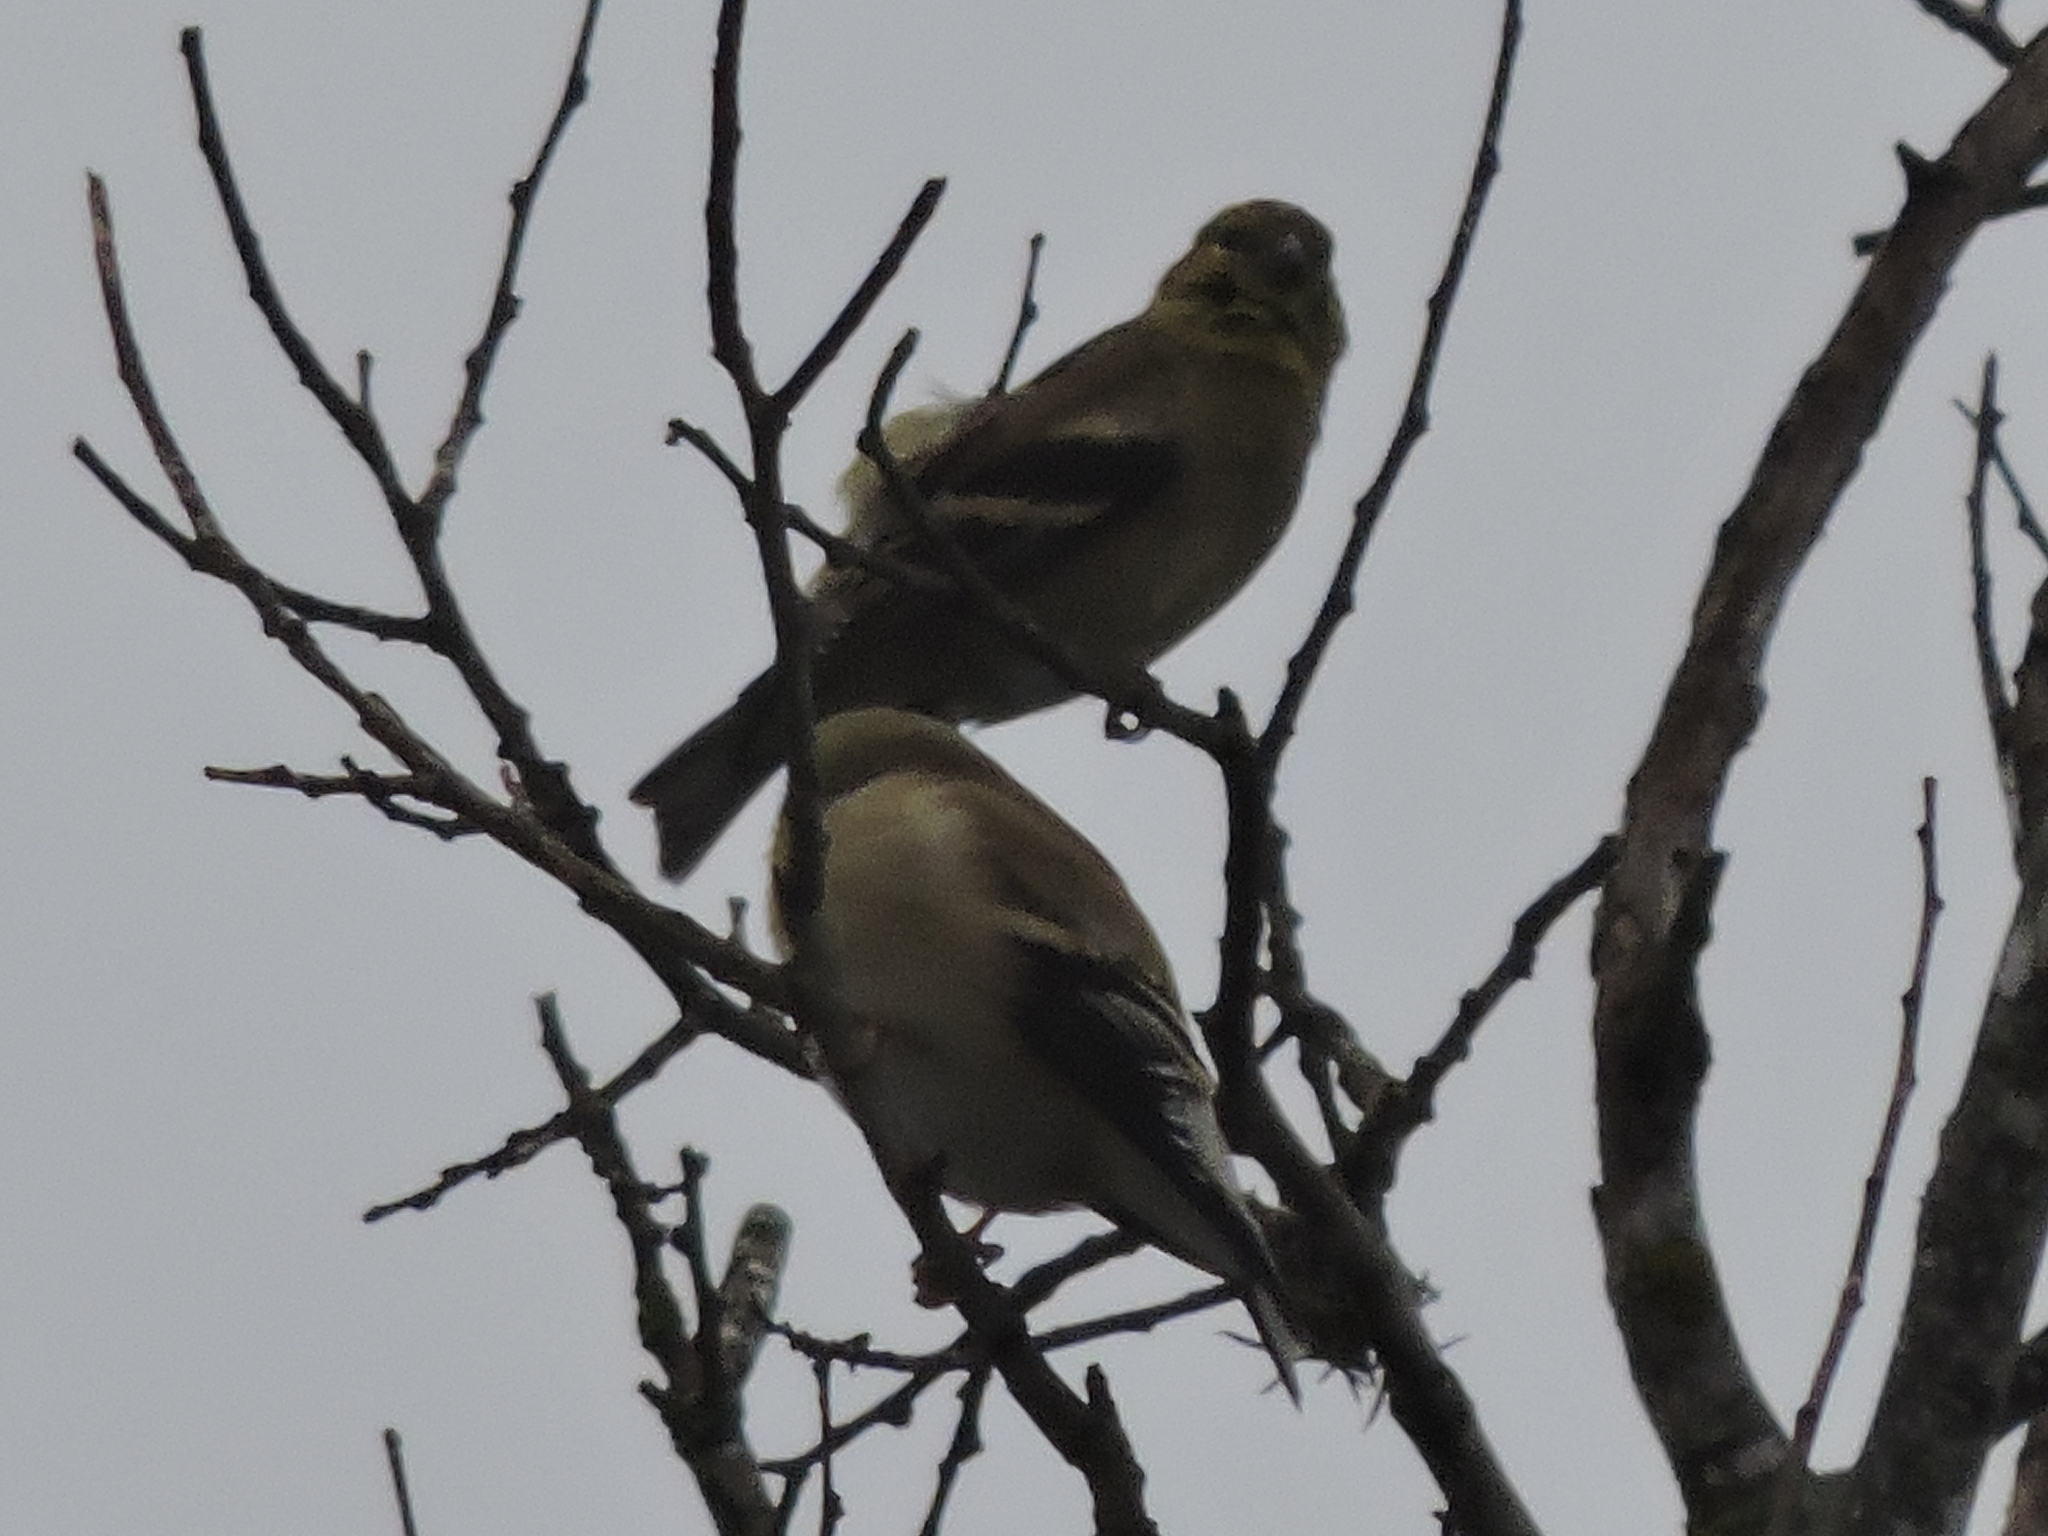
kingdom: Animalia
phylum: Chordata
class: Aves
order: Passeriformes
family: Fringillidae
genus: Spinus
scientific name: Spinus tristis
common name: American goldfinch
